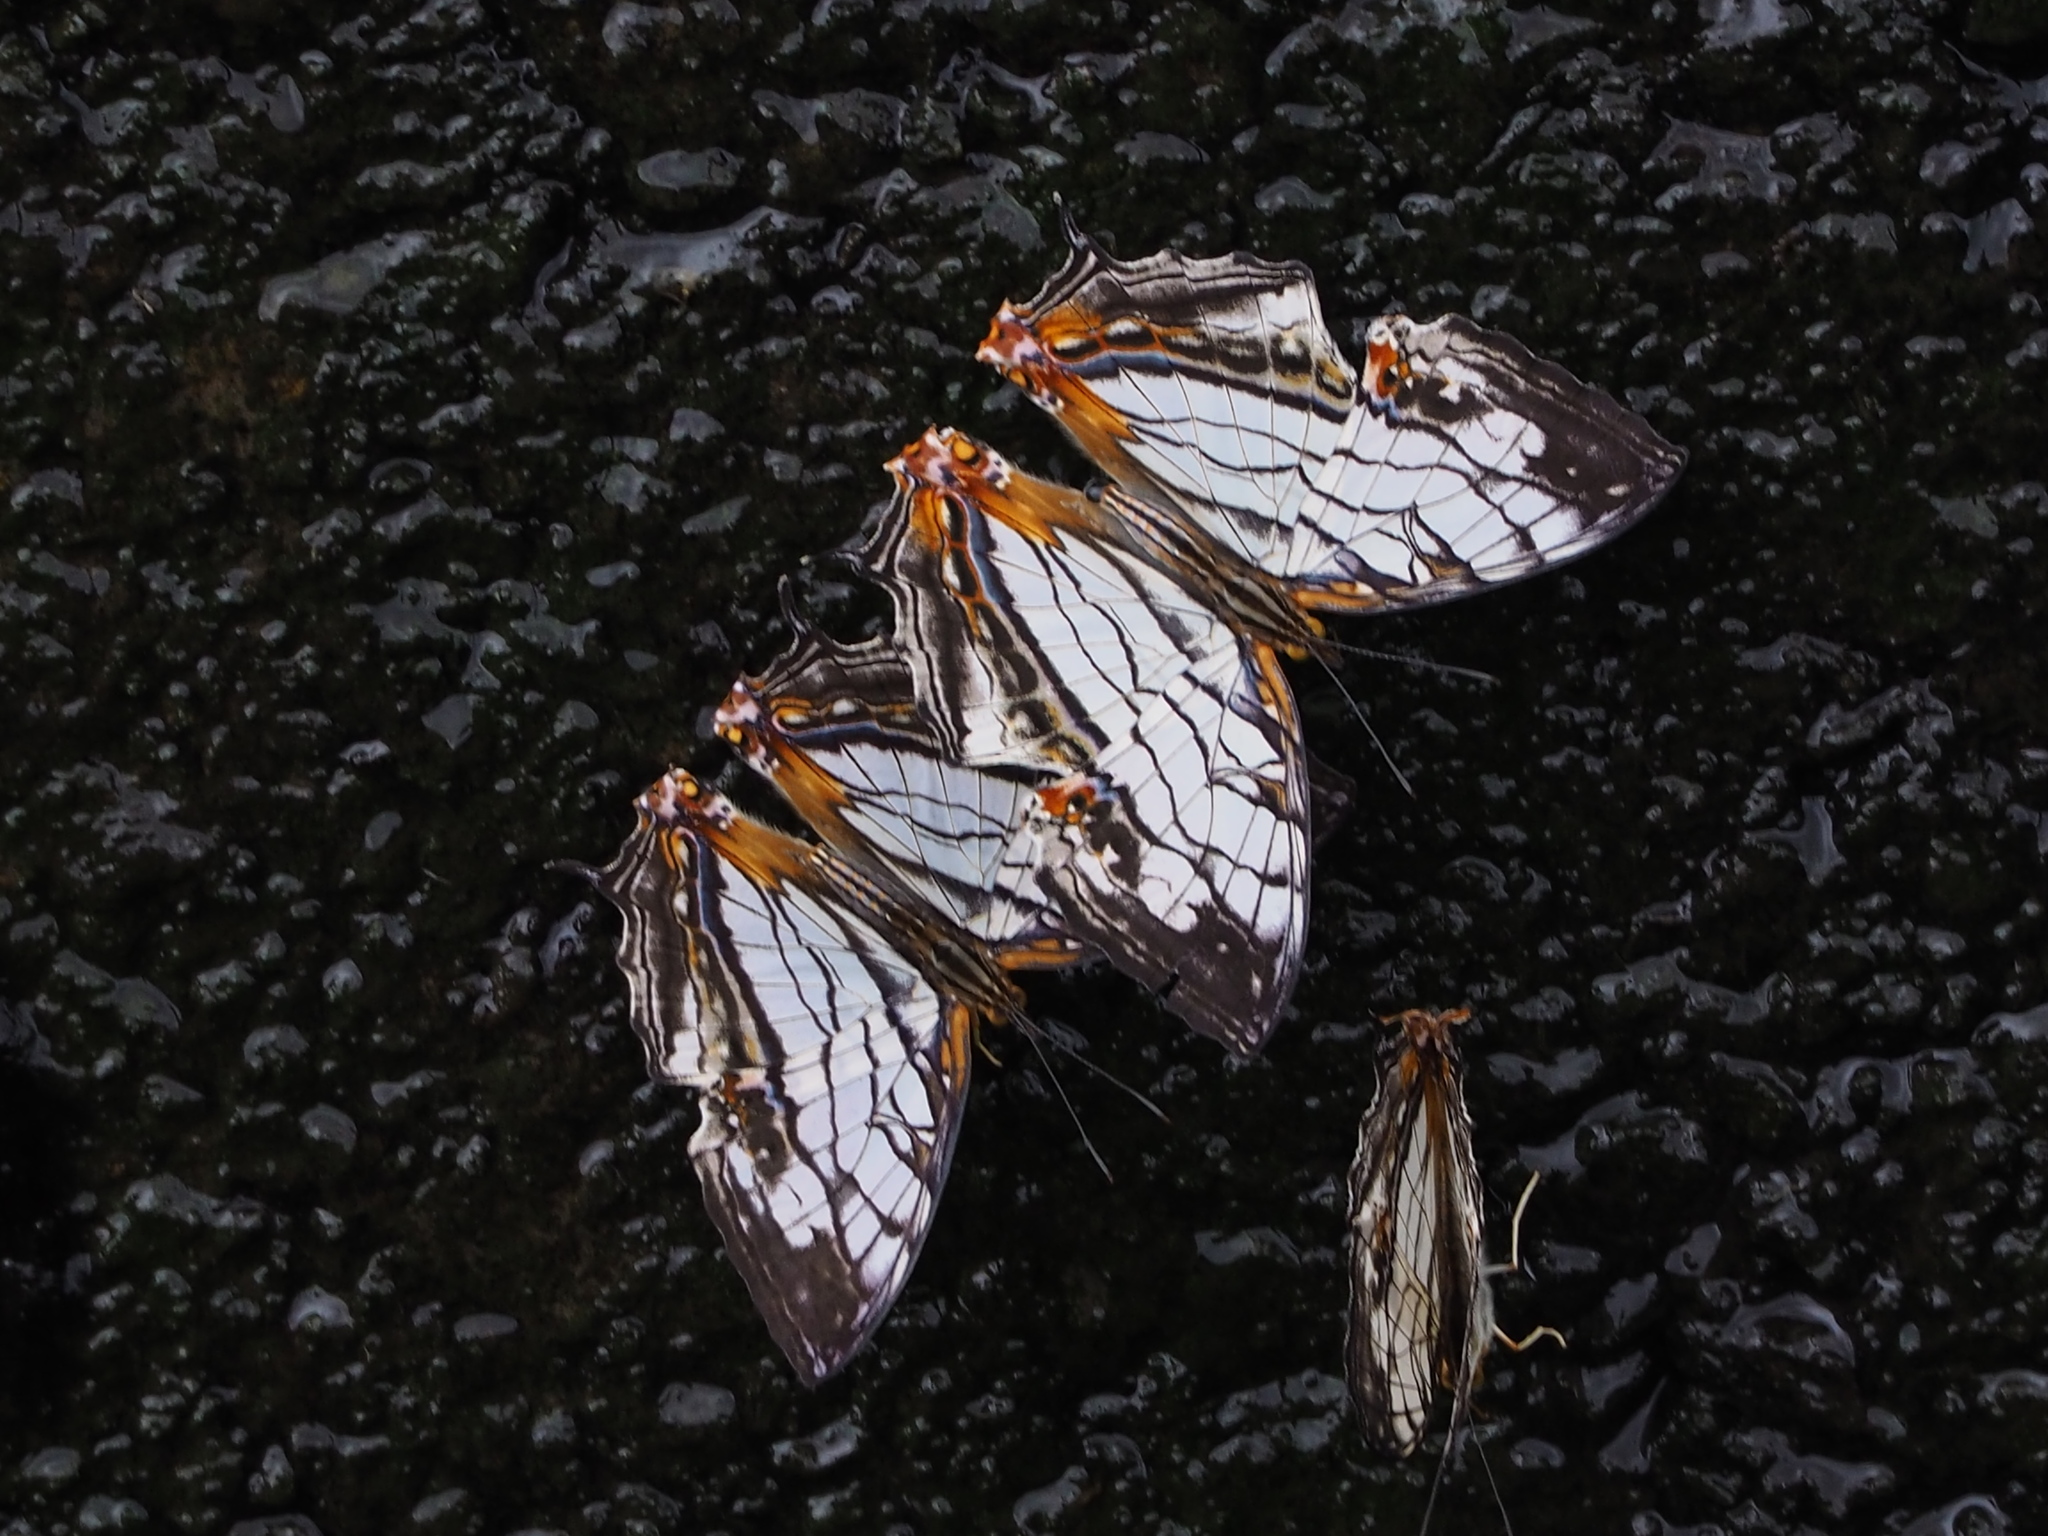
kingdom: Animalia
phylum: Arthropoda
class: Insecta
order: Lepidoptera
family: Nymphalidae
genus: Cyrestis
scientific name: Cyrestis thyodamas
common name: Common mapwing
